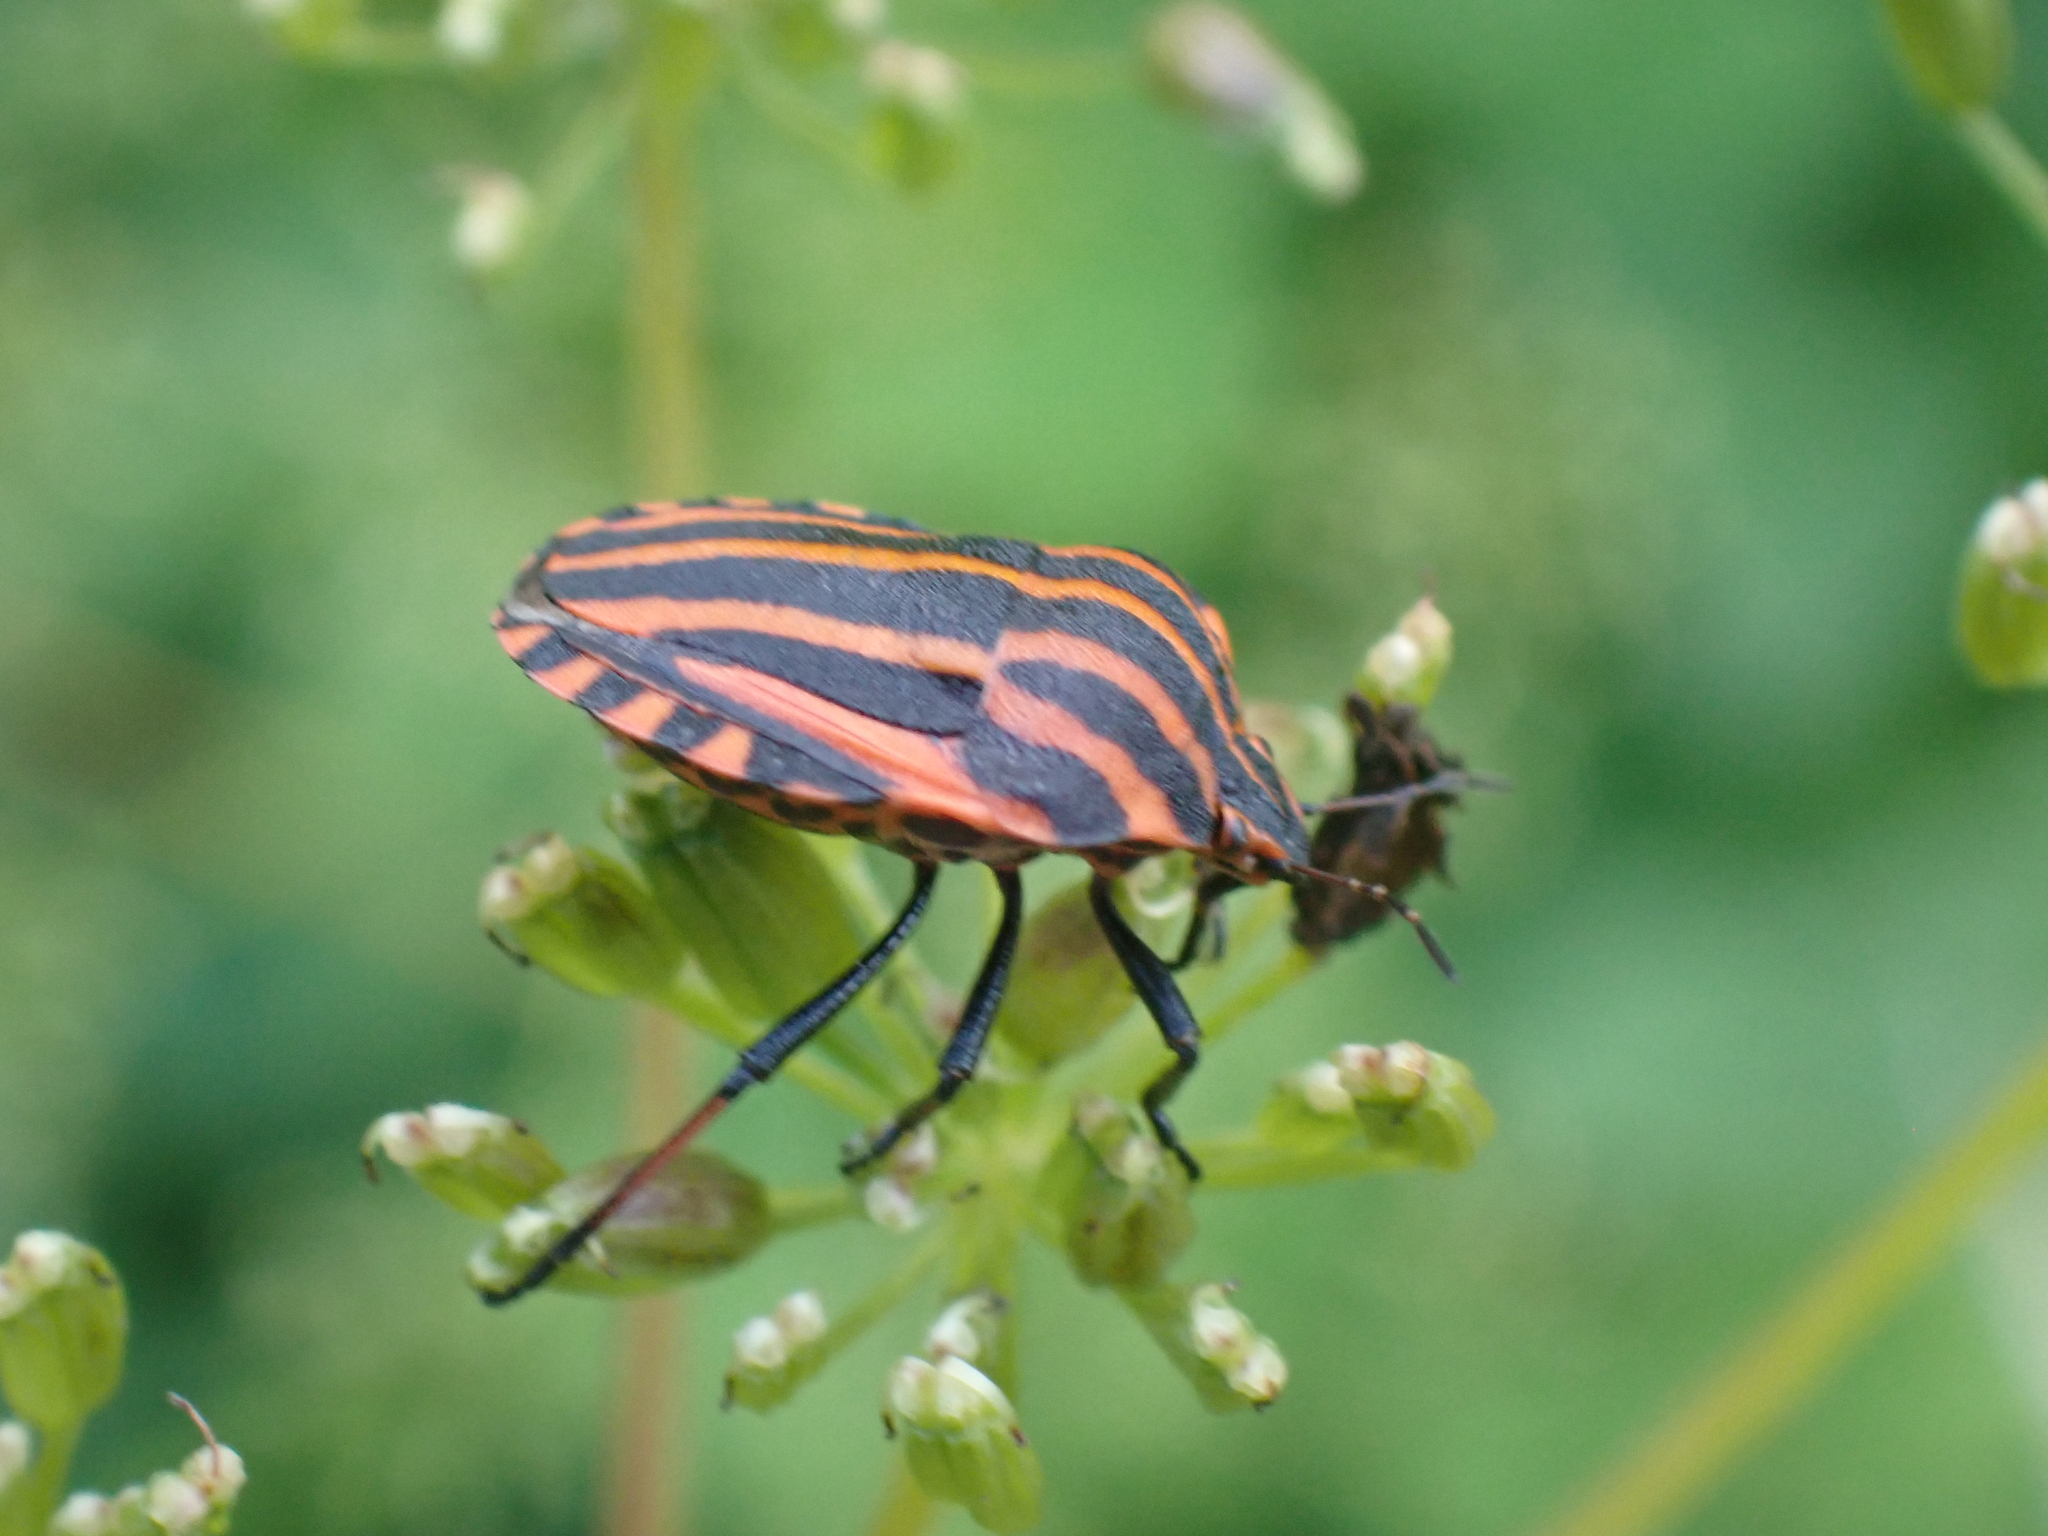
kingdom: Animalia
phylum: Arthropoda
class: Insecta
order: Hemiptera
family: Pentatomidae
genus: Graphosoma
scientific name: Graphosoma italicum
